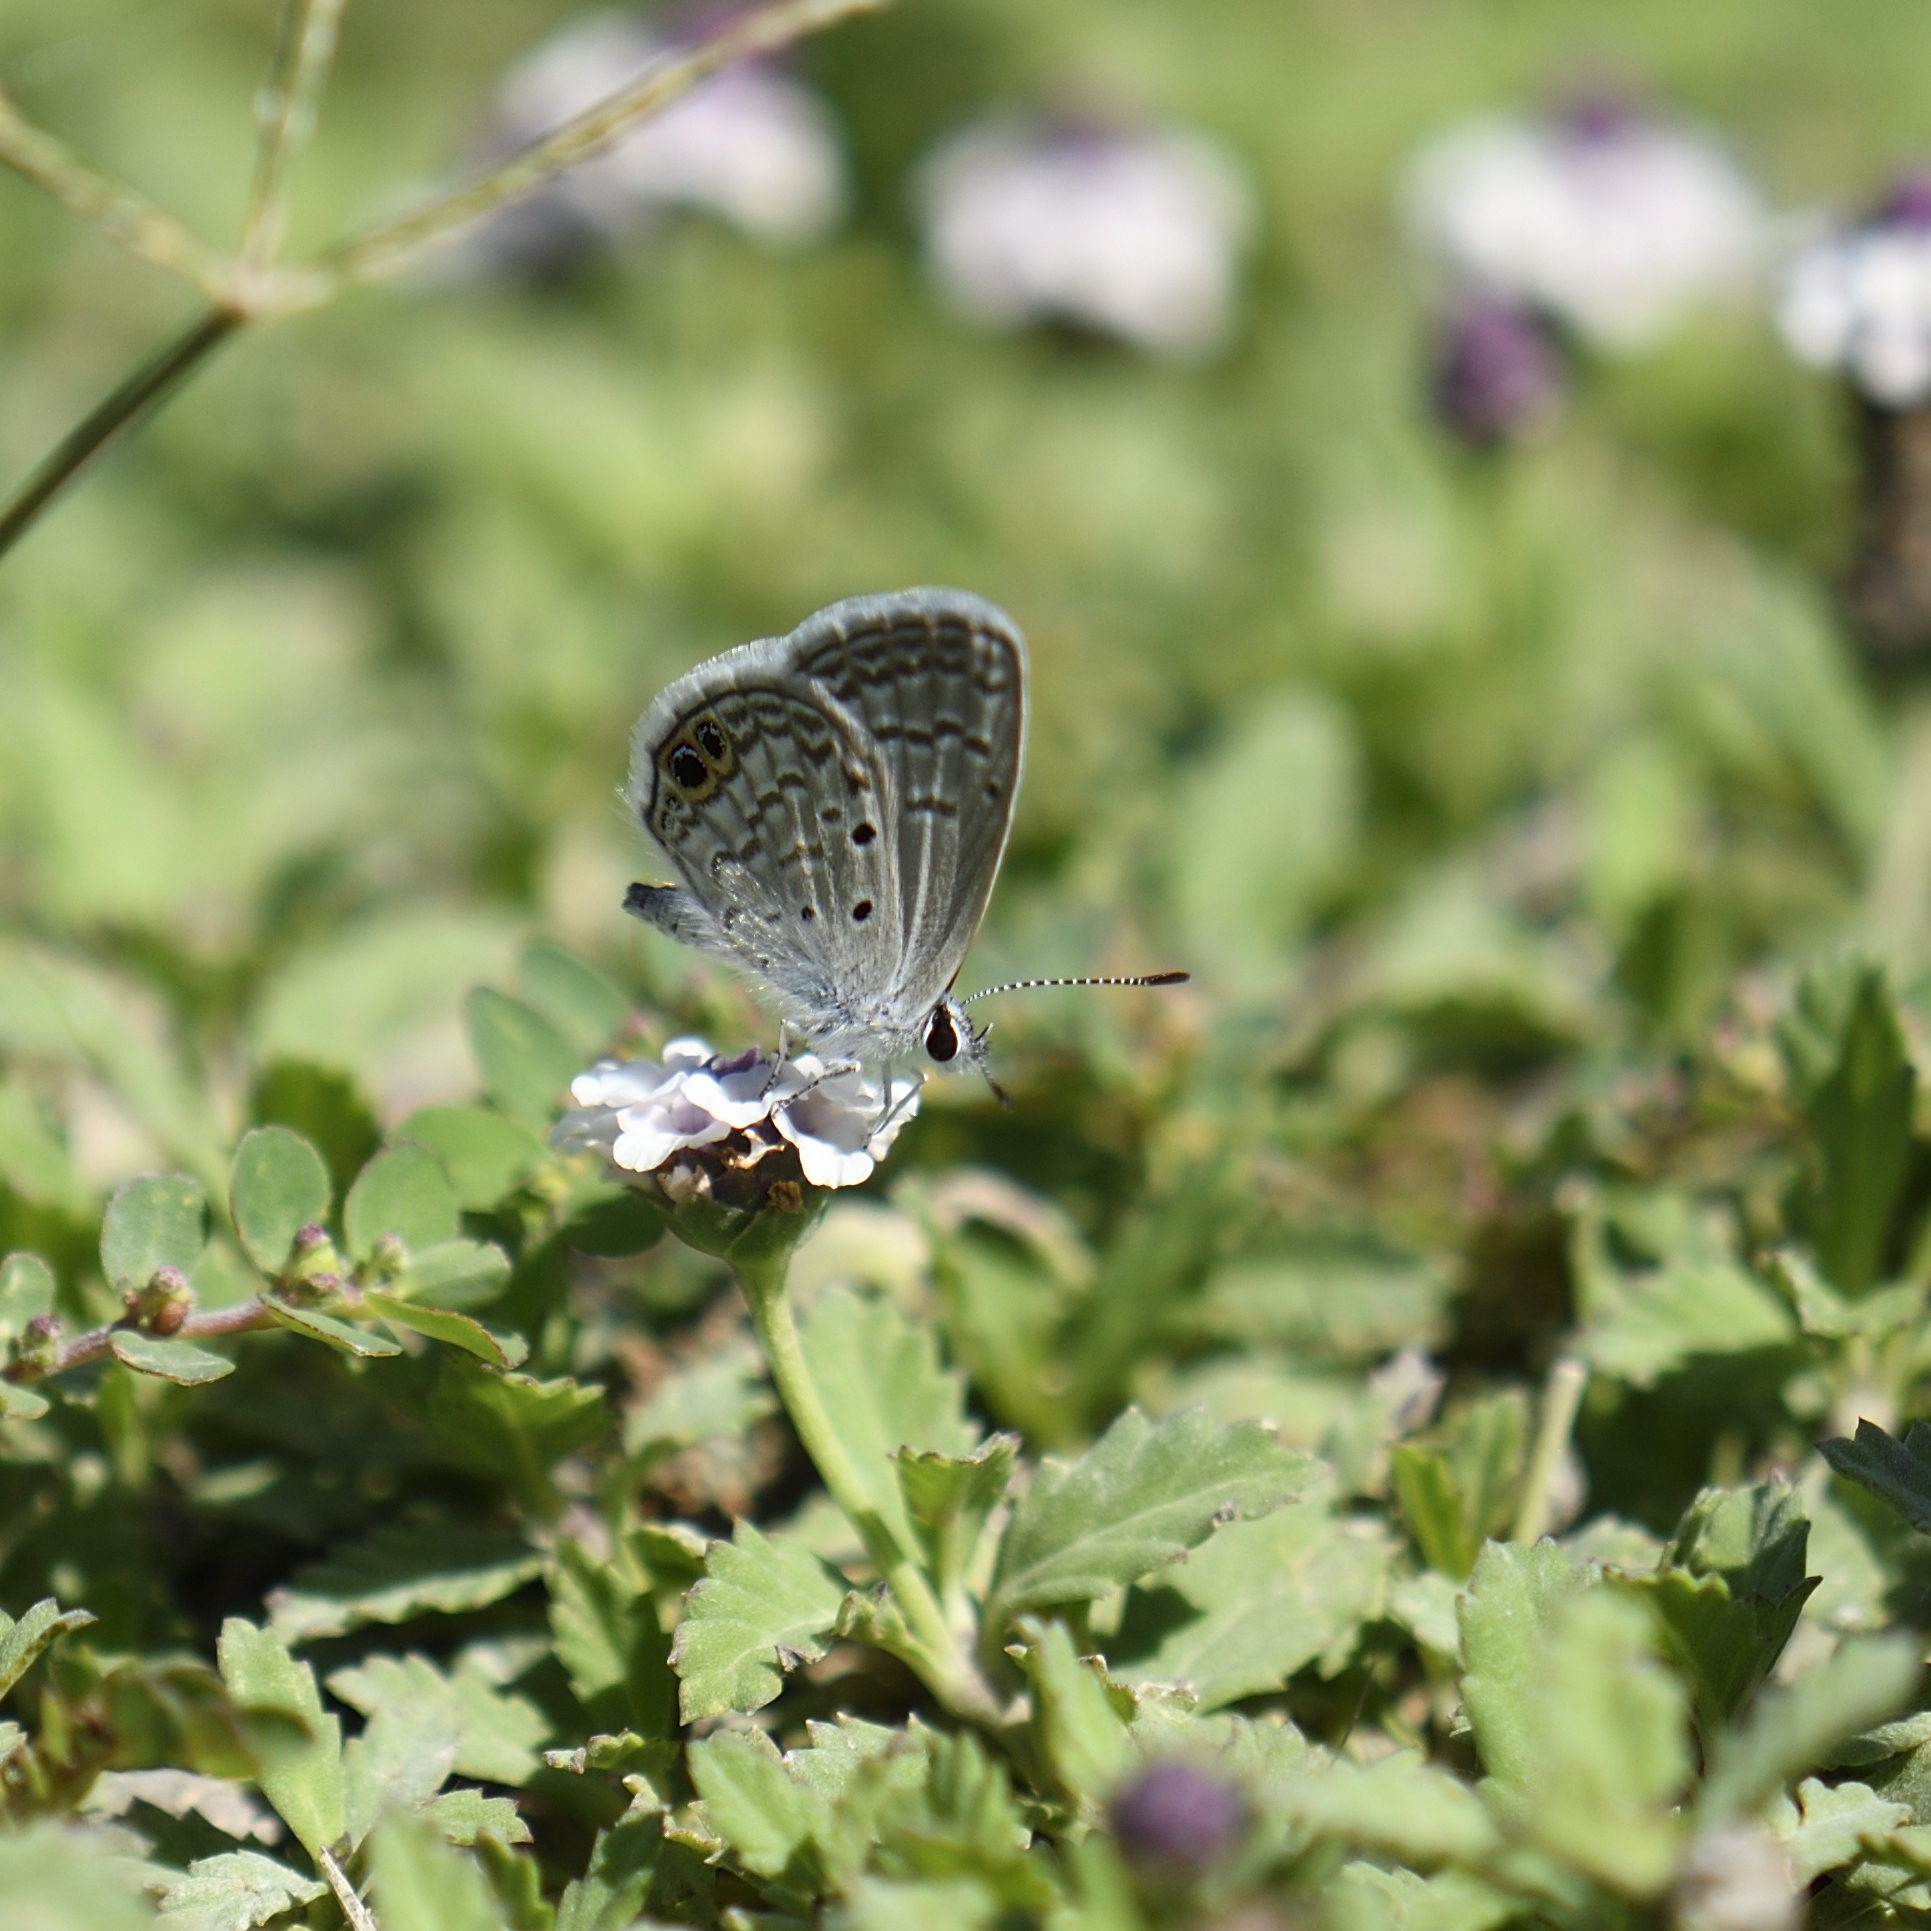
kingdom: Animalia
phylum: Arthropoda
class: Insecta
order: Lepidoptera
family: Lycaenidae
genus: Hemiargus
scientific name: Hemiargus ceraunus
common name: Ceraunus blue
